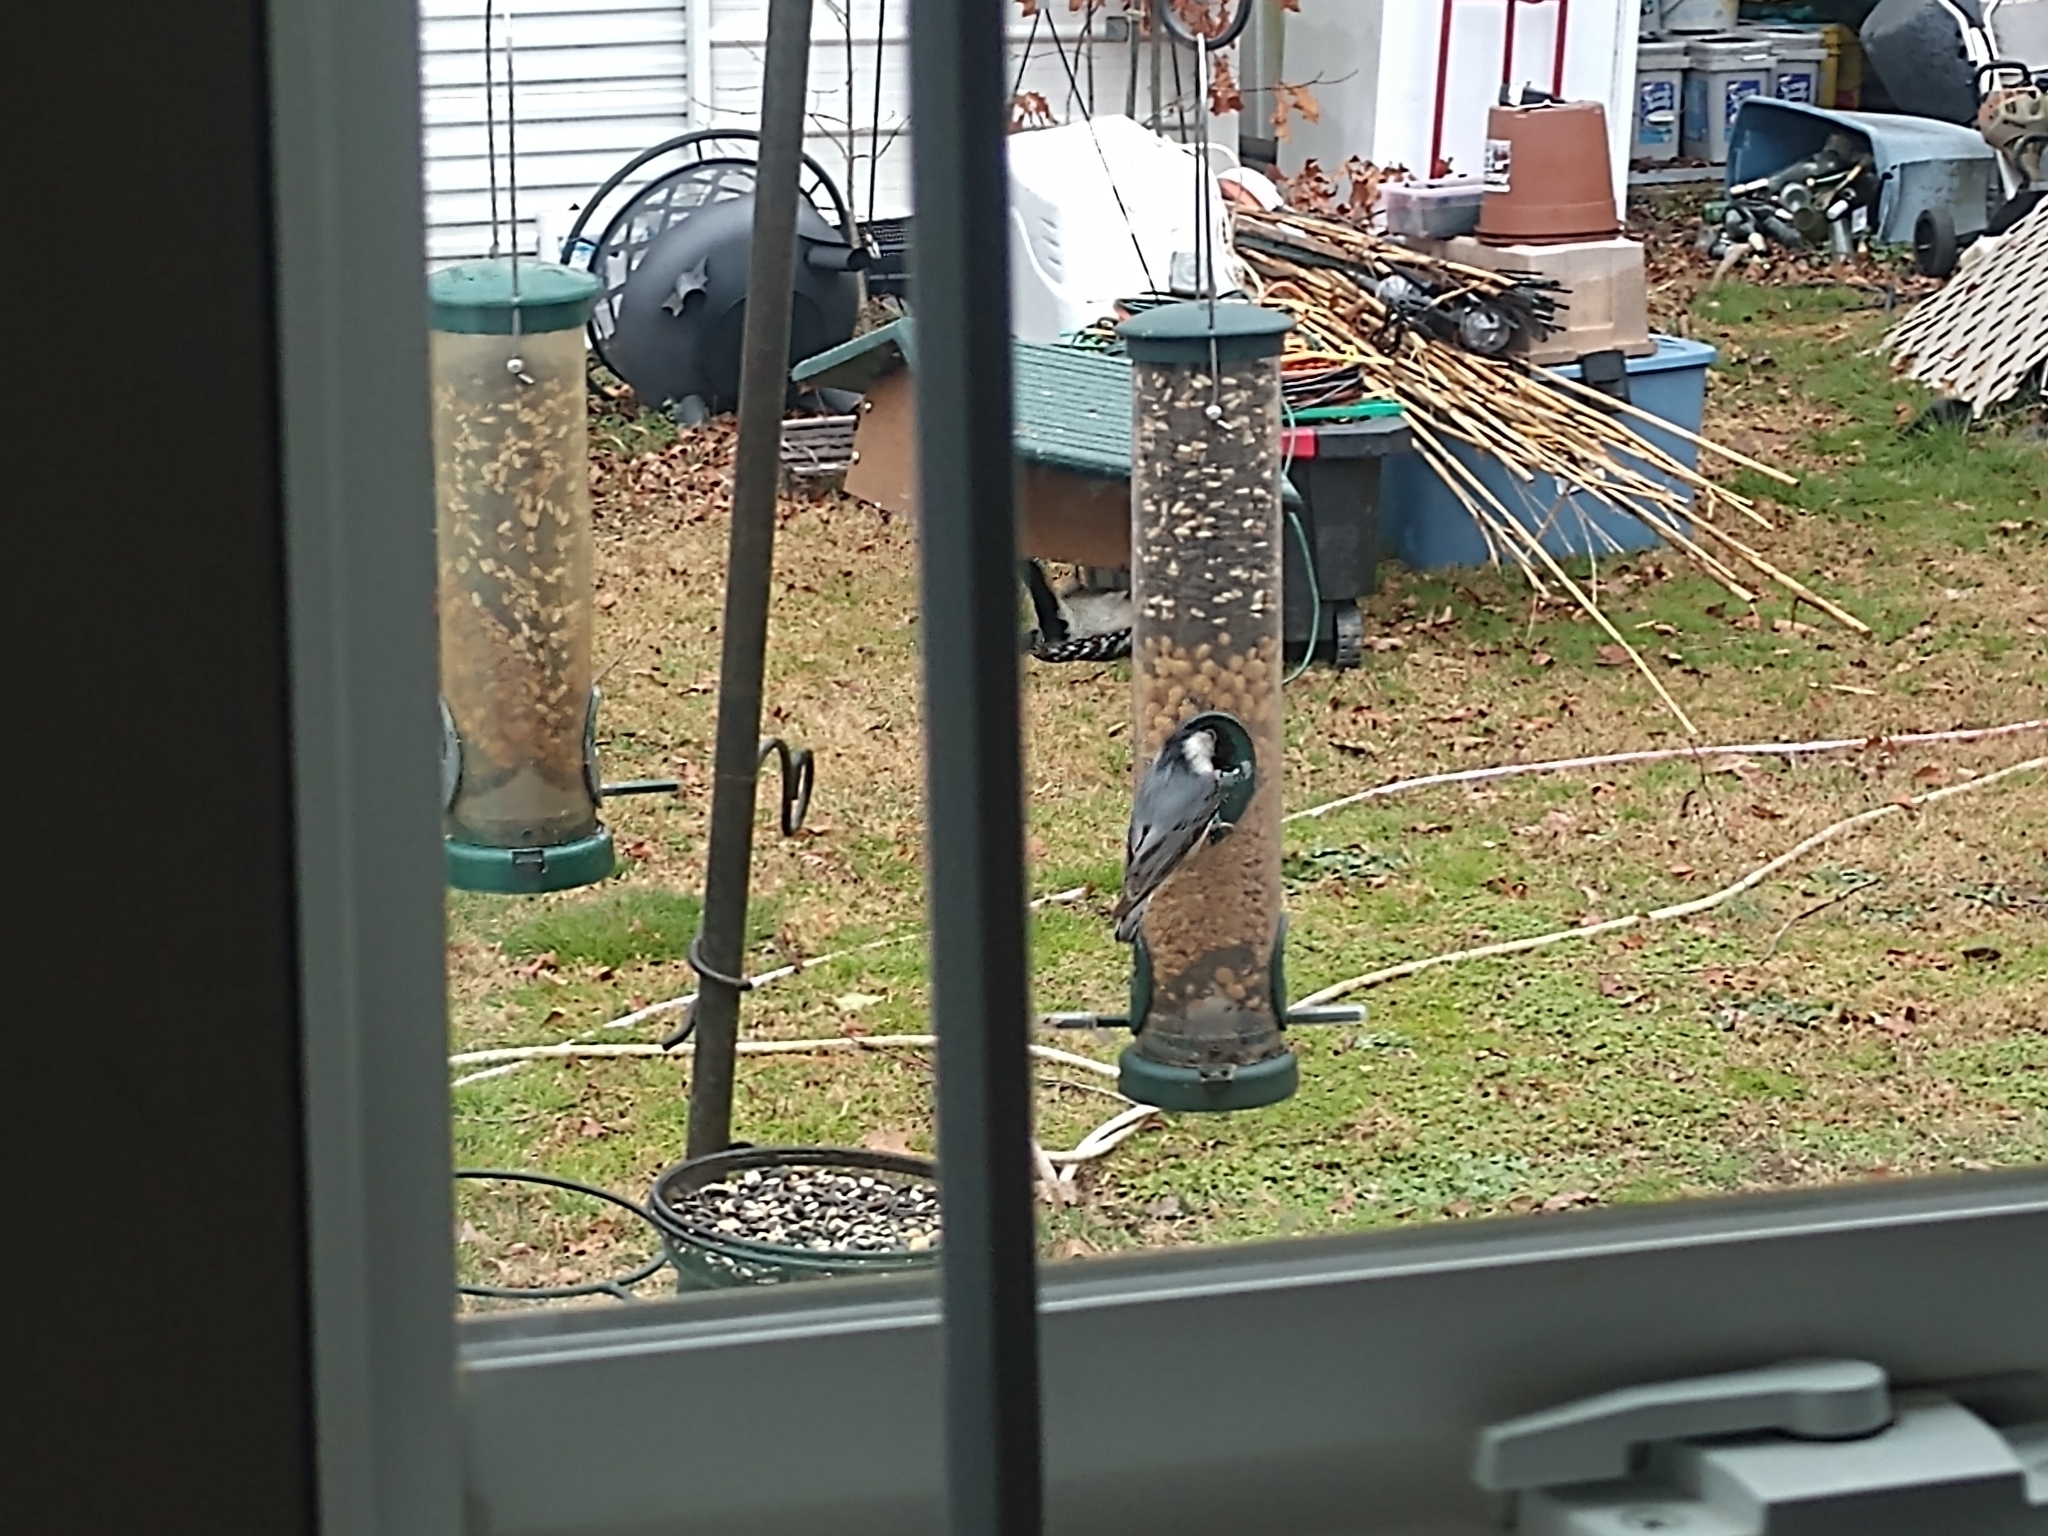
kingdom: Animalia
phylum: Chordata
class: Aves
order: Passeriformes
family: Sittidae
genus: Sitta
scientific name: Sitta carolinensis
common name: White-breasted nuthatch
